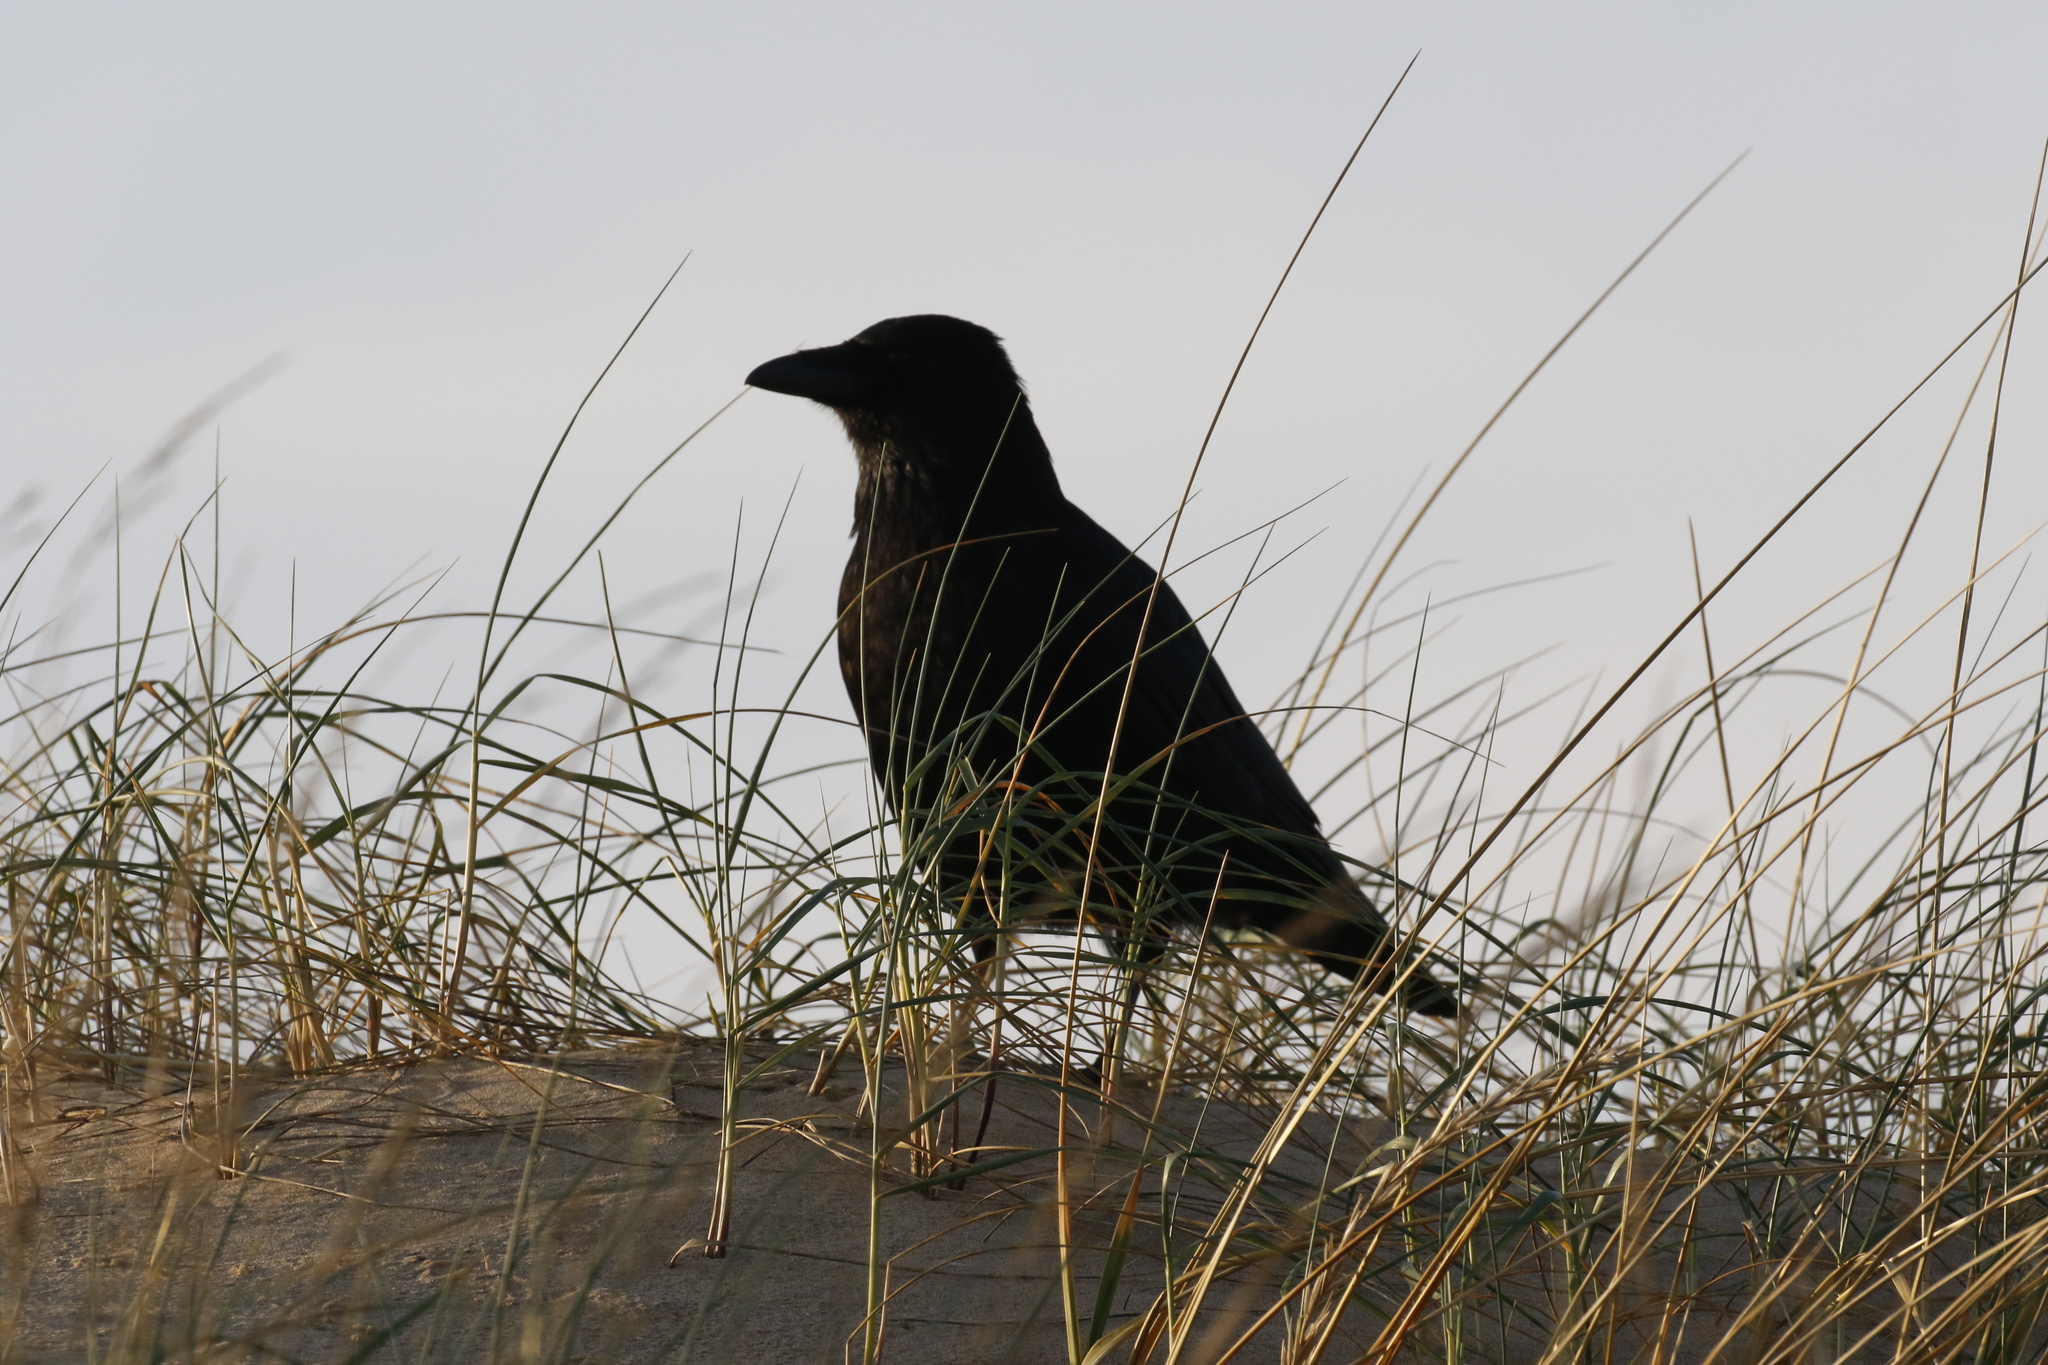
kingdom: Animalia
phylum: Chordata
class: Aves
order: Passeriformes
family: Corvidae
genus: Corvus
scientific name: Corvus corone
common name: Carrion crow
